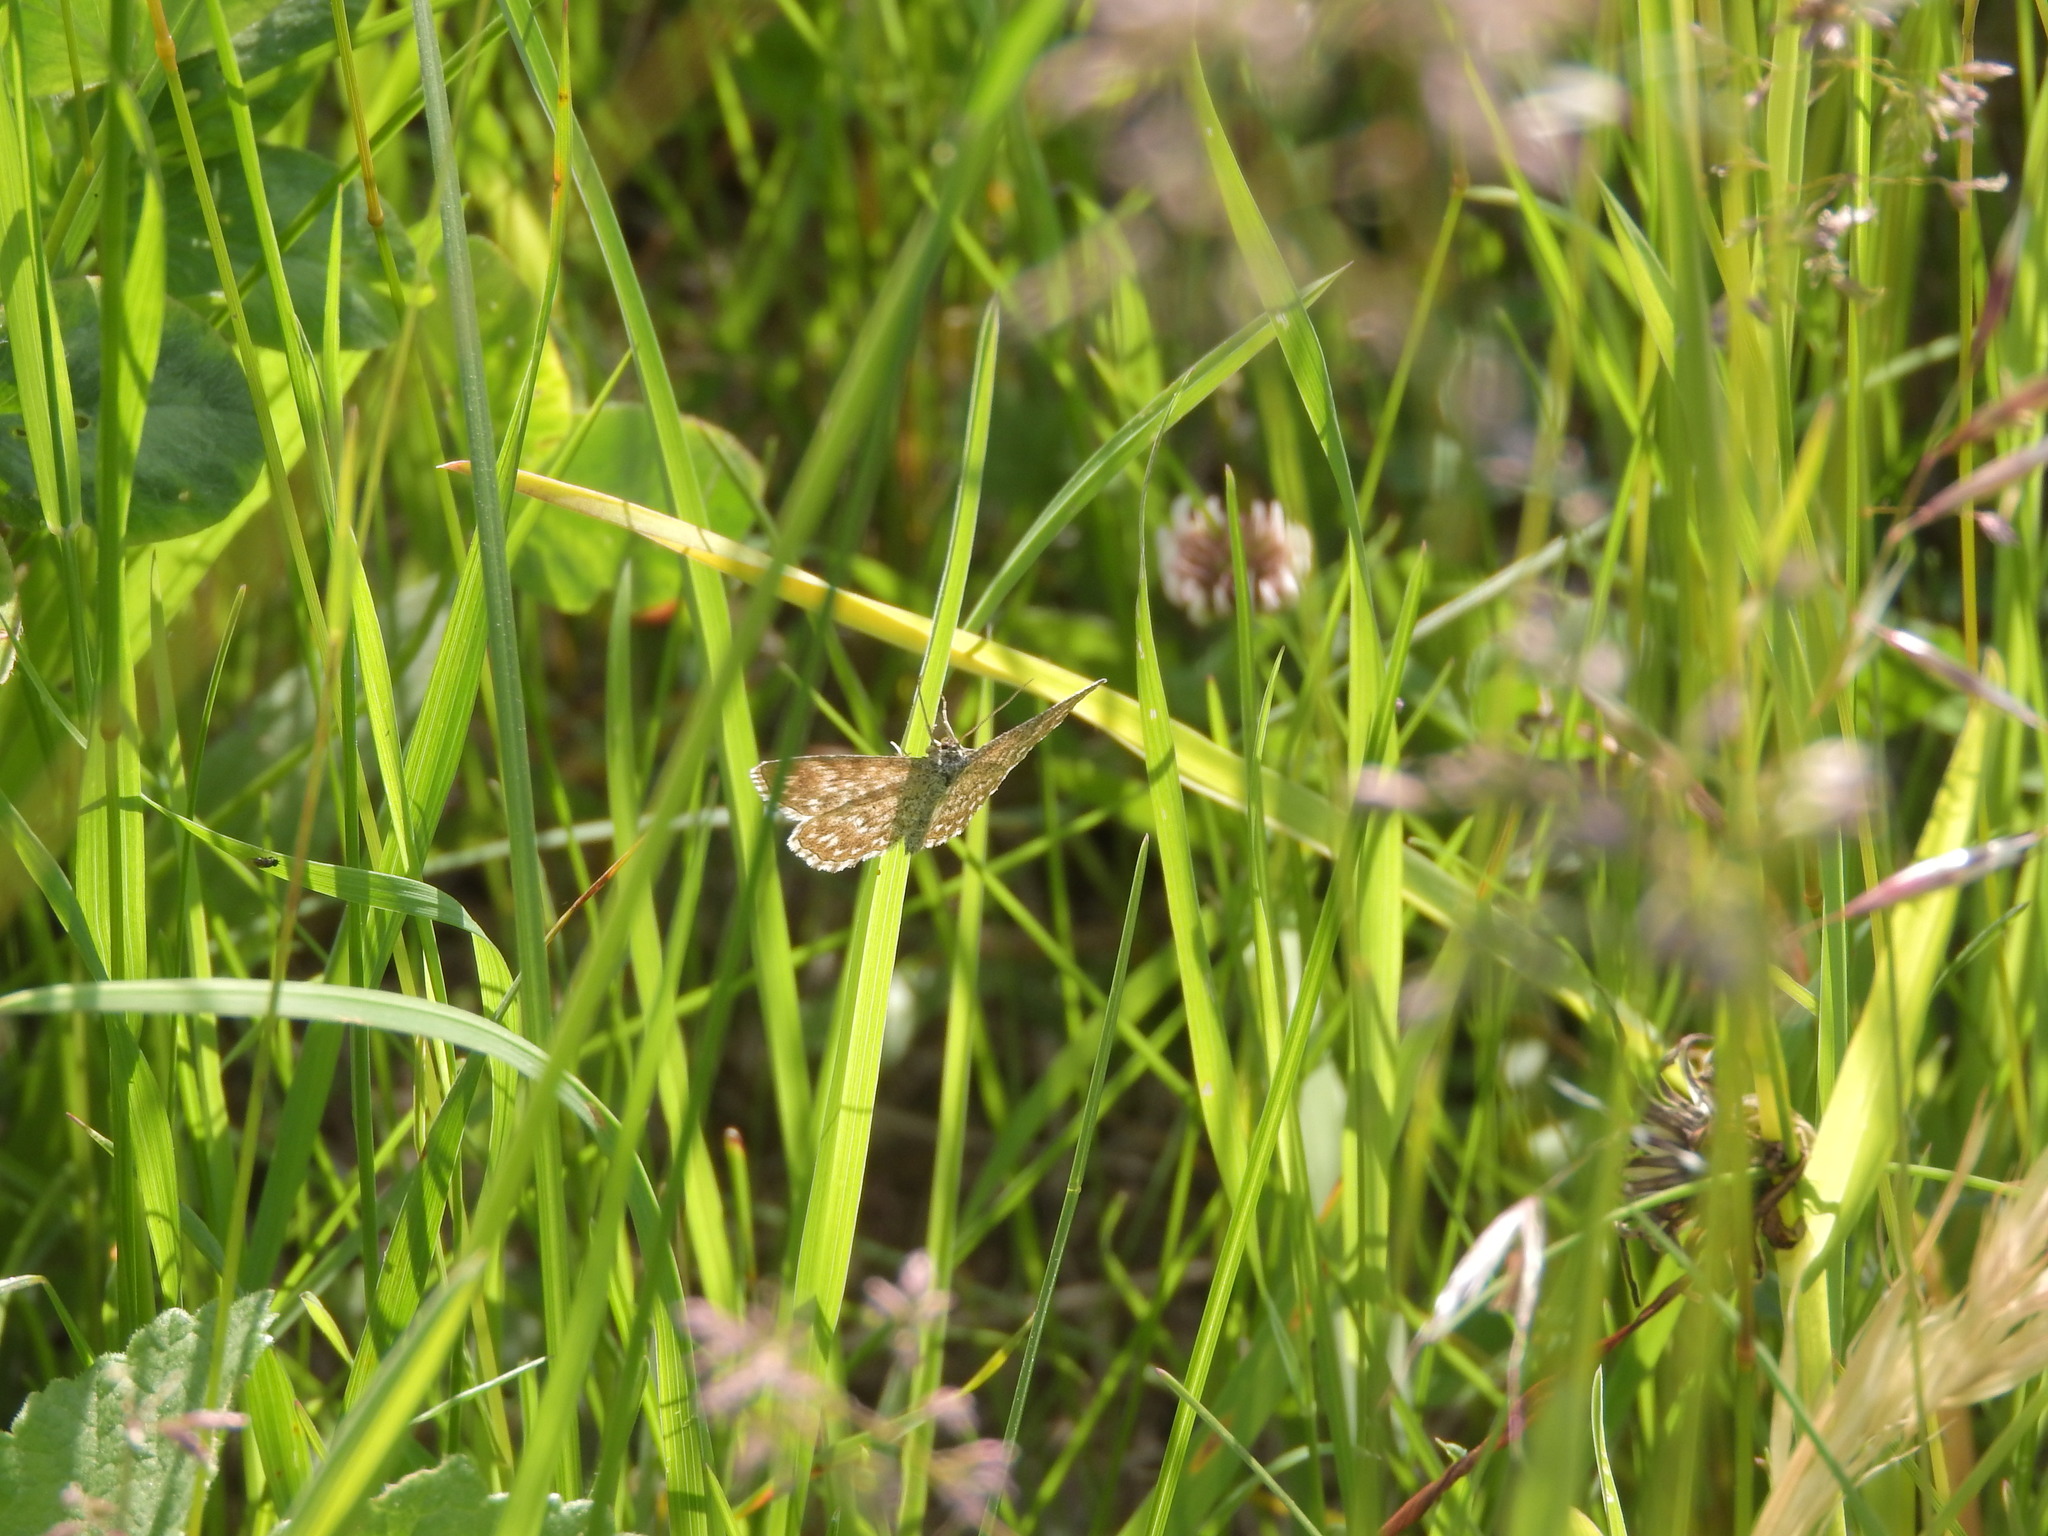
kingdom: Animalia
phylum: Arthropoda
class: Insecta
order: Lepidoptera
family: Geometridae
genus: Scopula
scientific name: Scopula immorata
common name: Lewes wave
